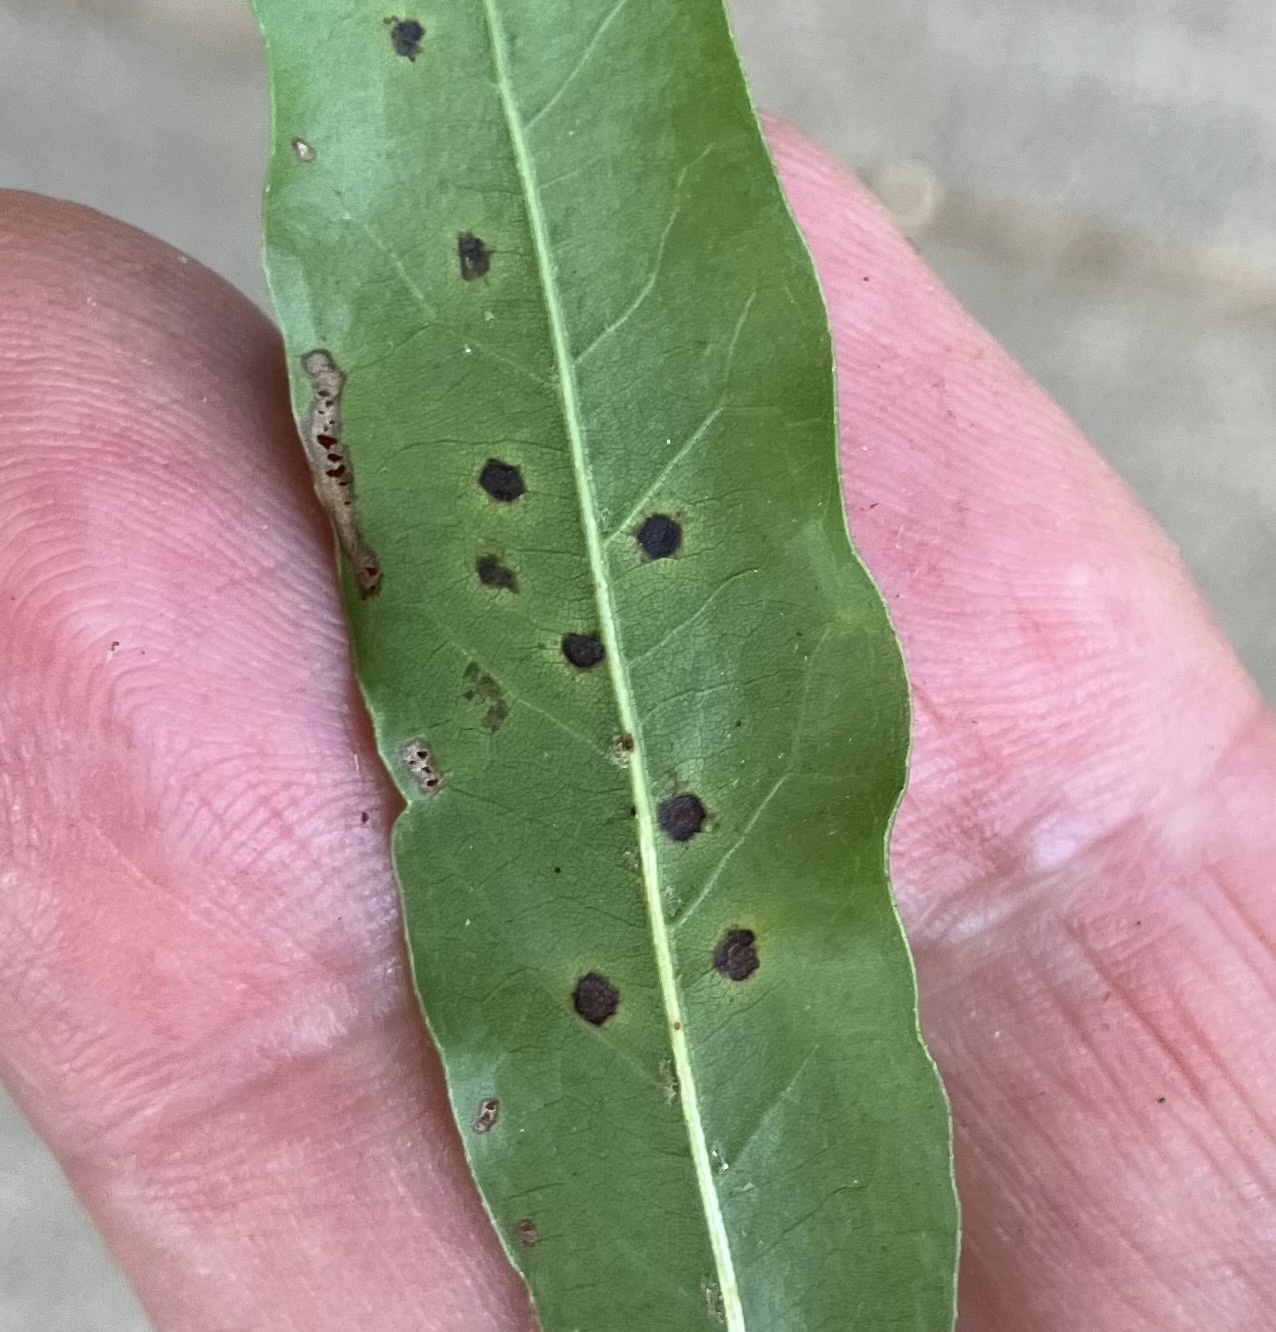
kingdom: Fungi
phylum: Ascomycota
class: Sordariomycetes
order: Phyllachorales
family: Phyllachoraceae
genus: Trabutia
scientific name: Trabutia quercina
